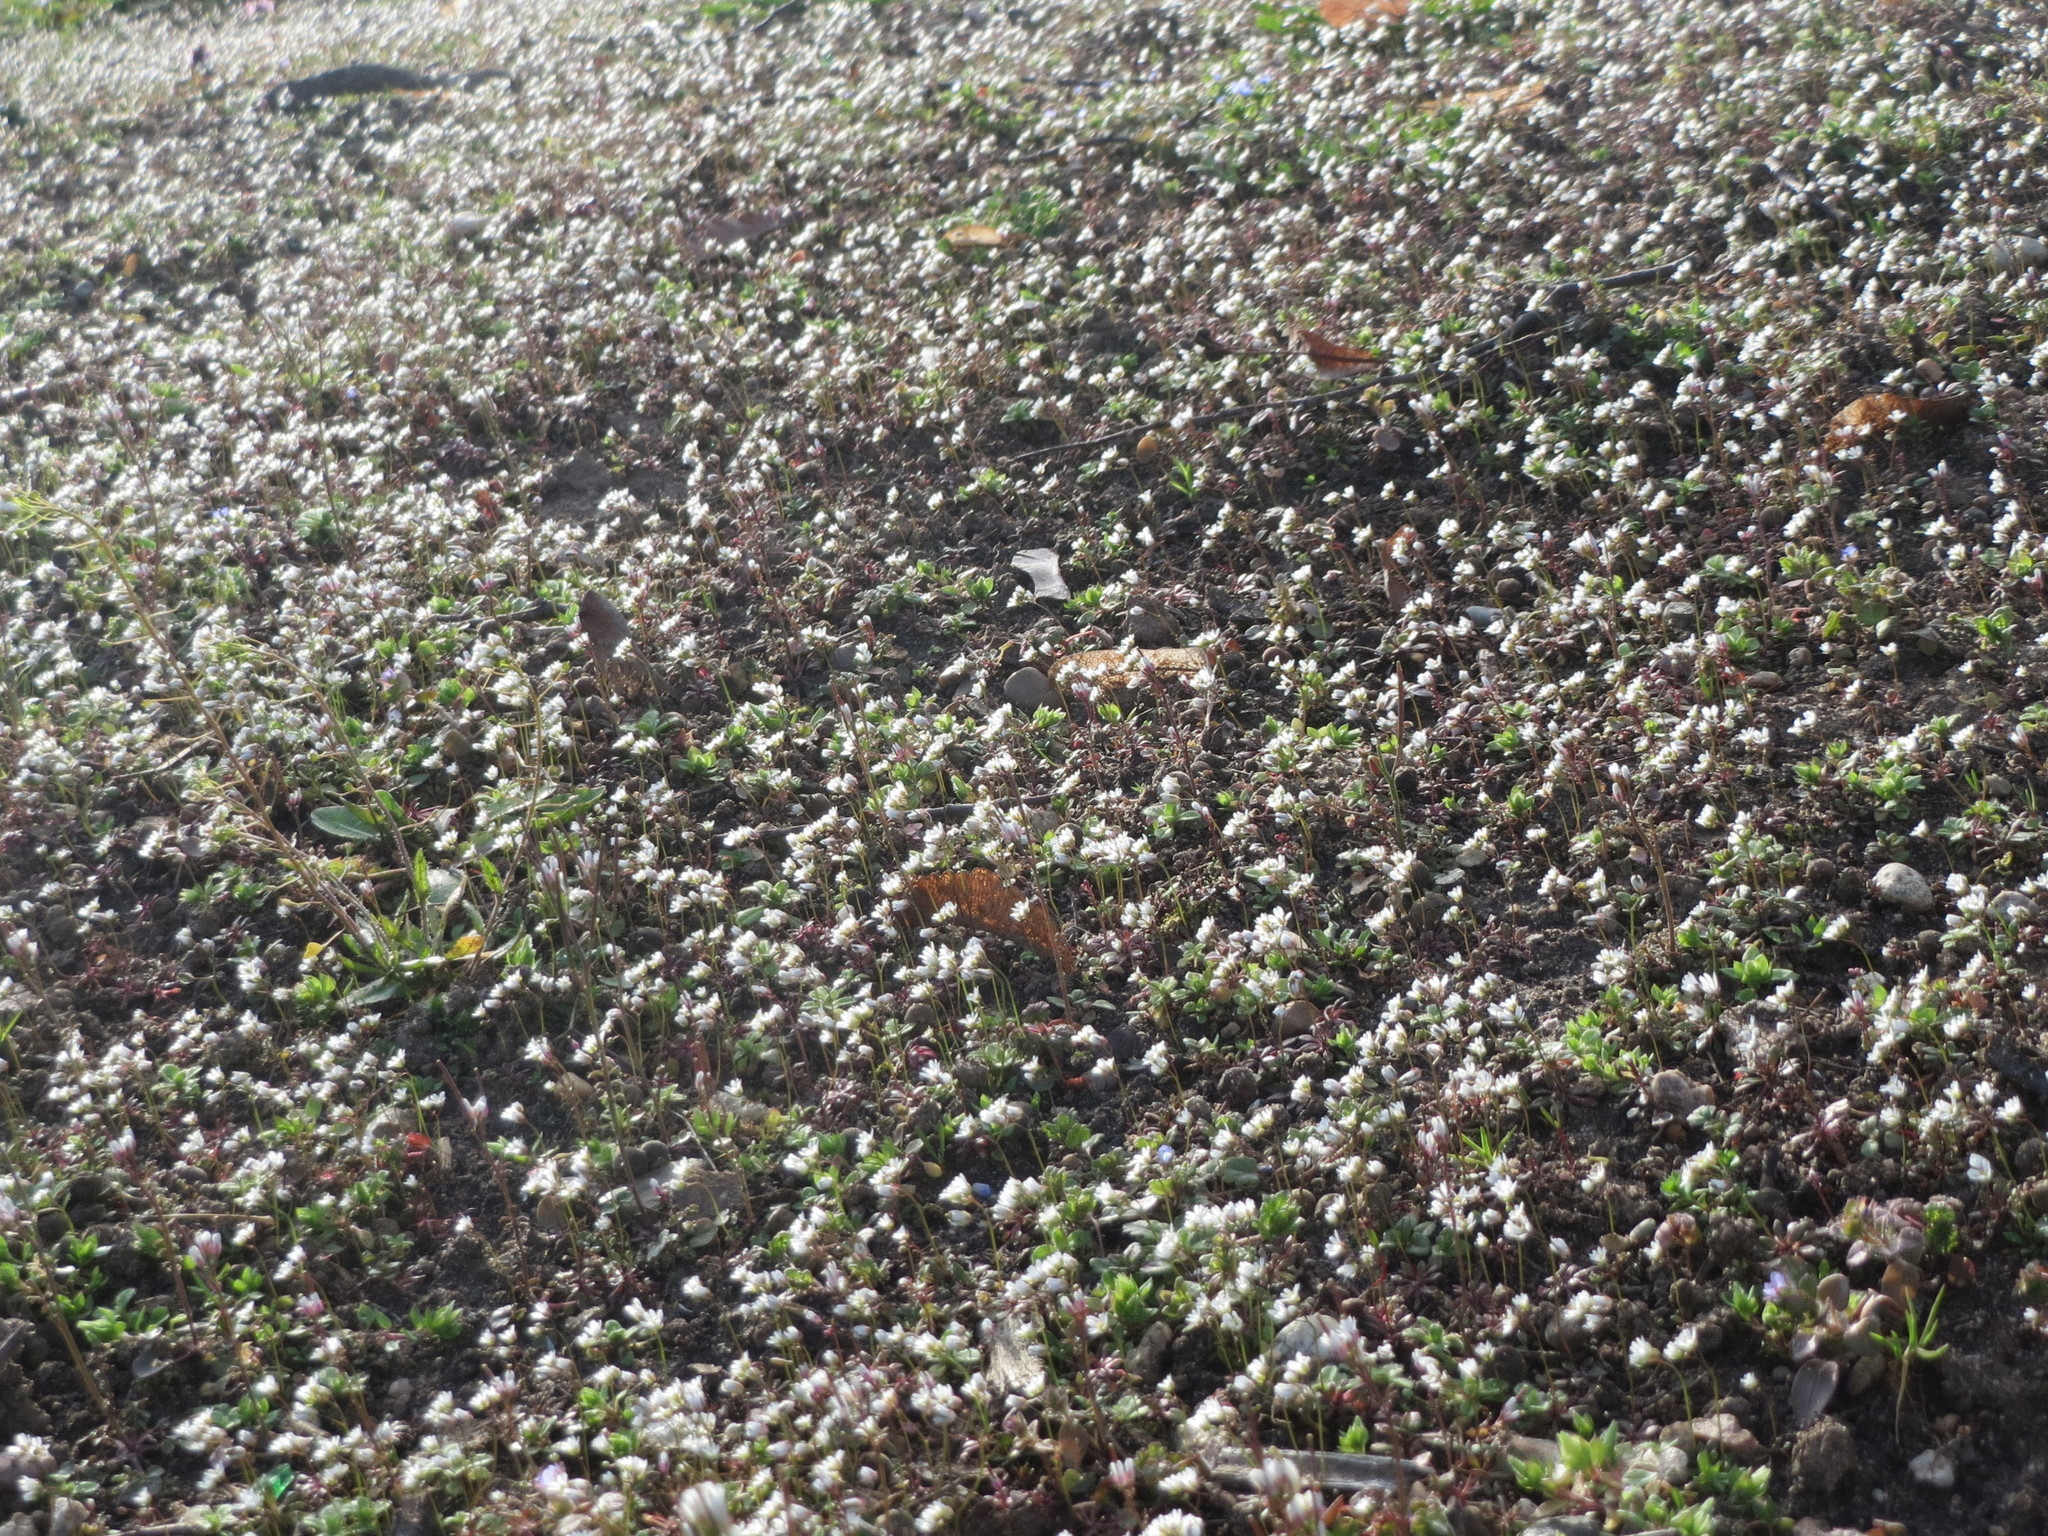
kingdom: Plantae
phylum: Tracheophyta
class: Magnoliopsida
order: Brassicales
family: Brassicaceae
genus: Draba
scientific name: Draba verna
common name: Spring draba
